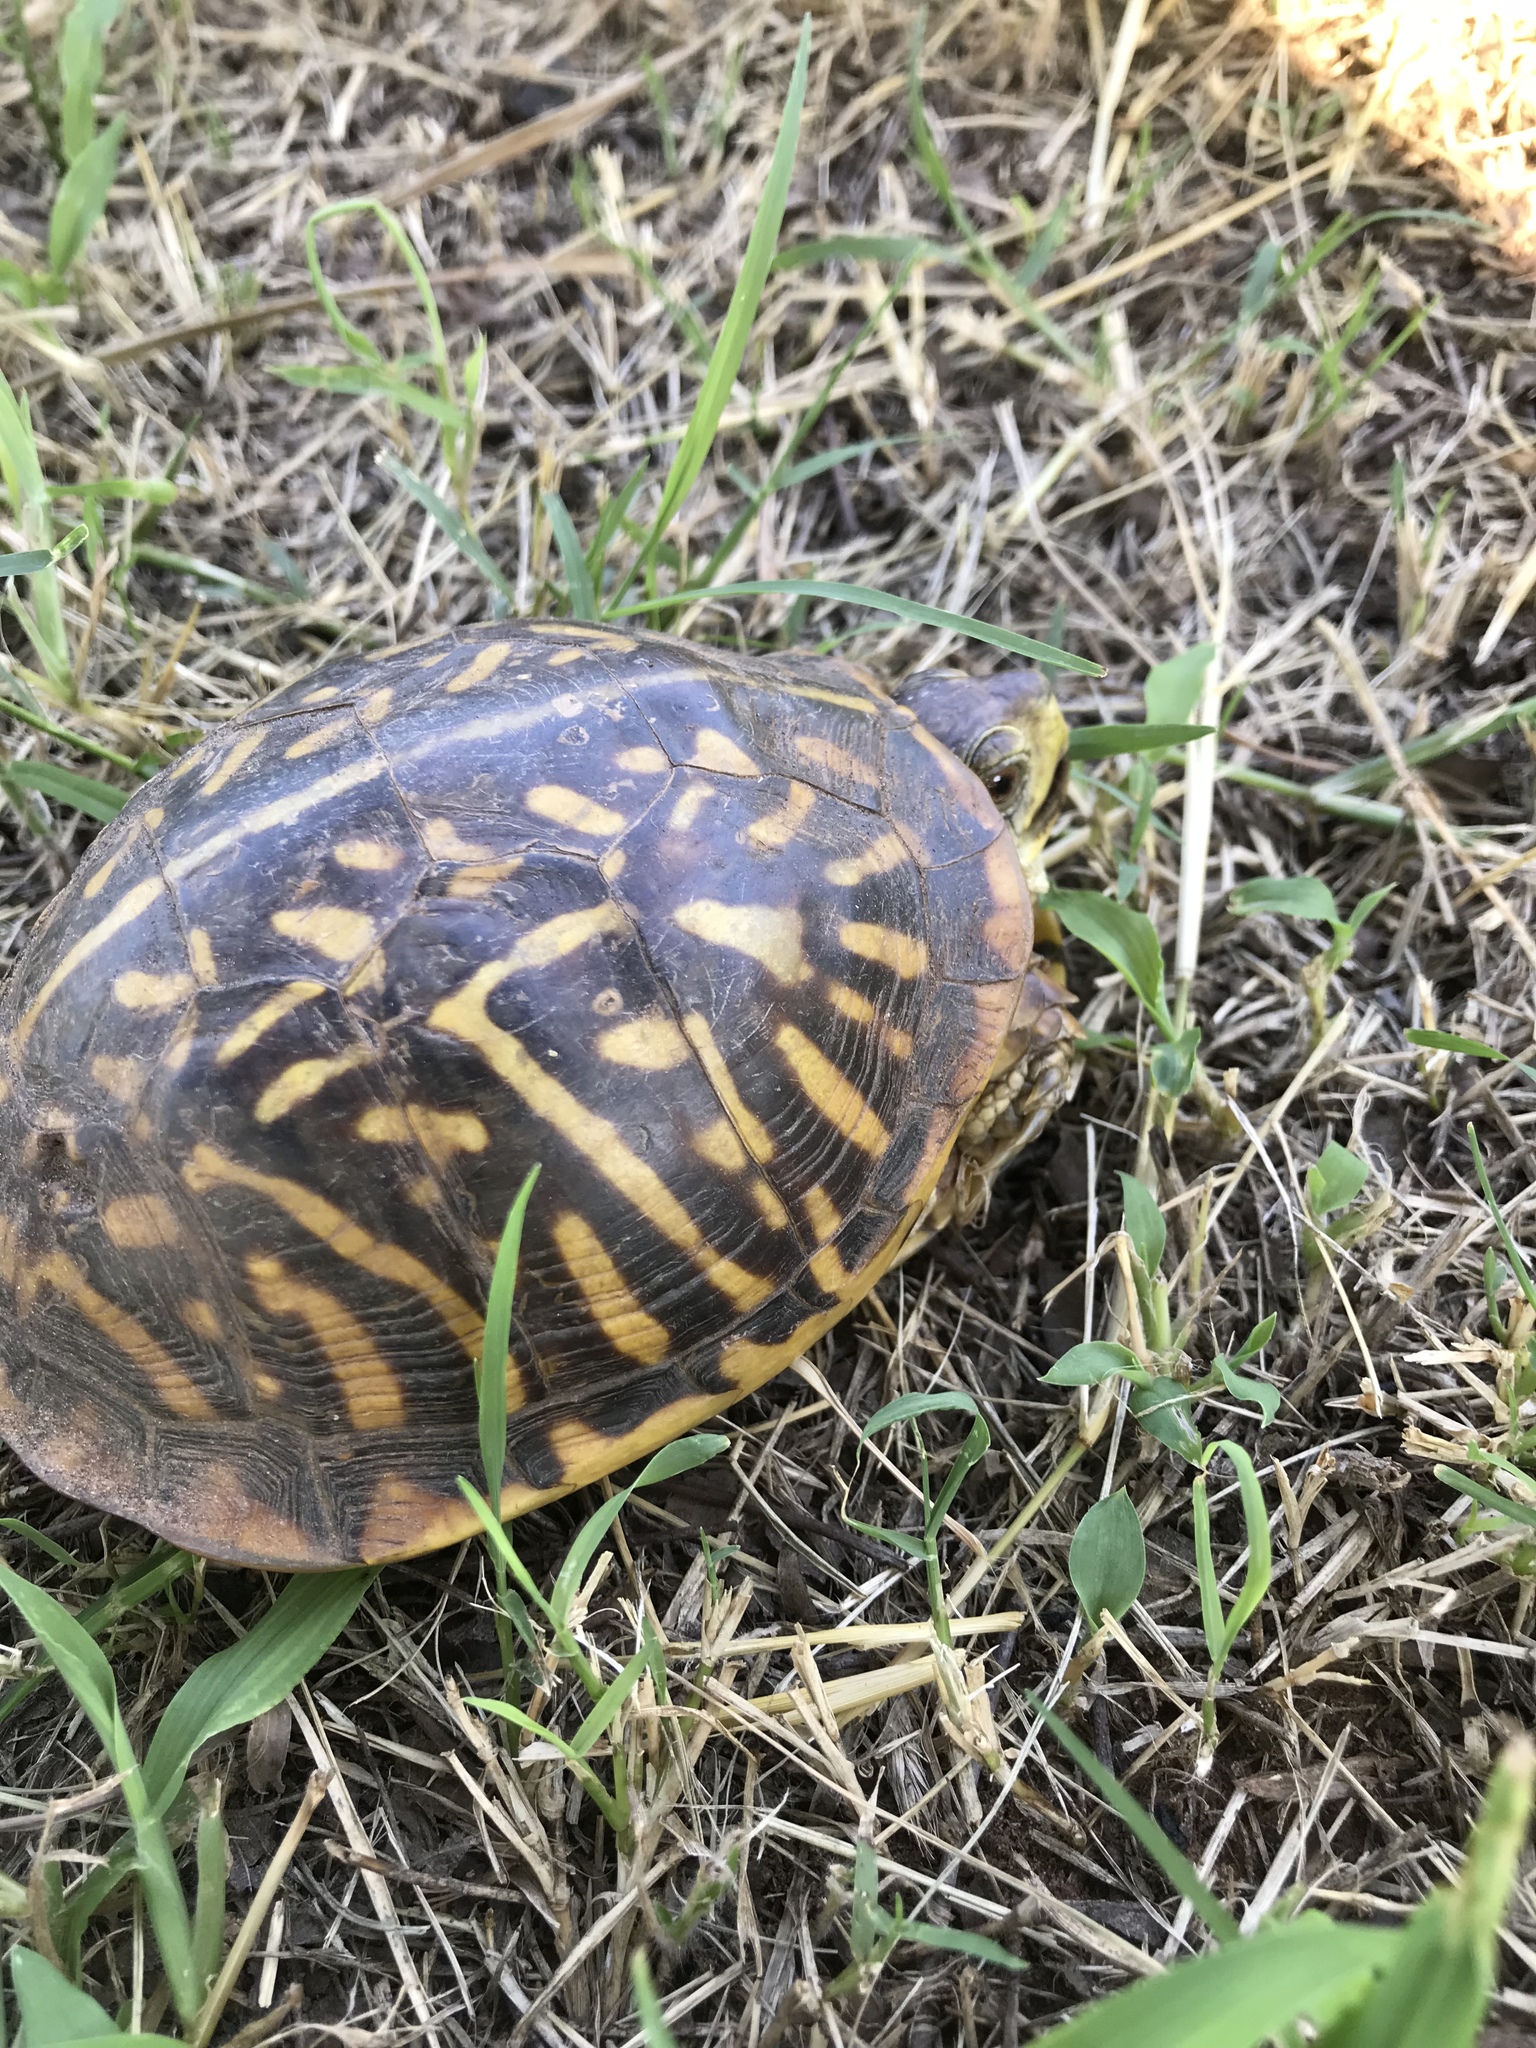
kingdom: Animalia
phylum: Chordata
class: Testudines
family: Emydidae
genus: Terrapene
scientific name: Terrapene ornata
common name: Western box turtle
